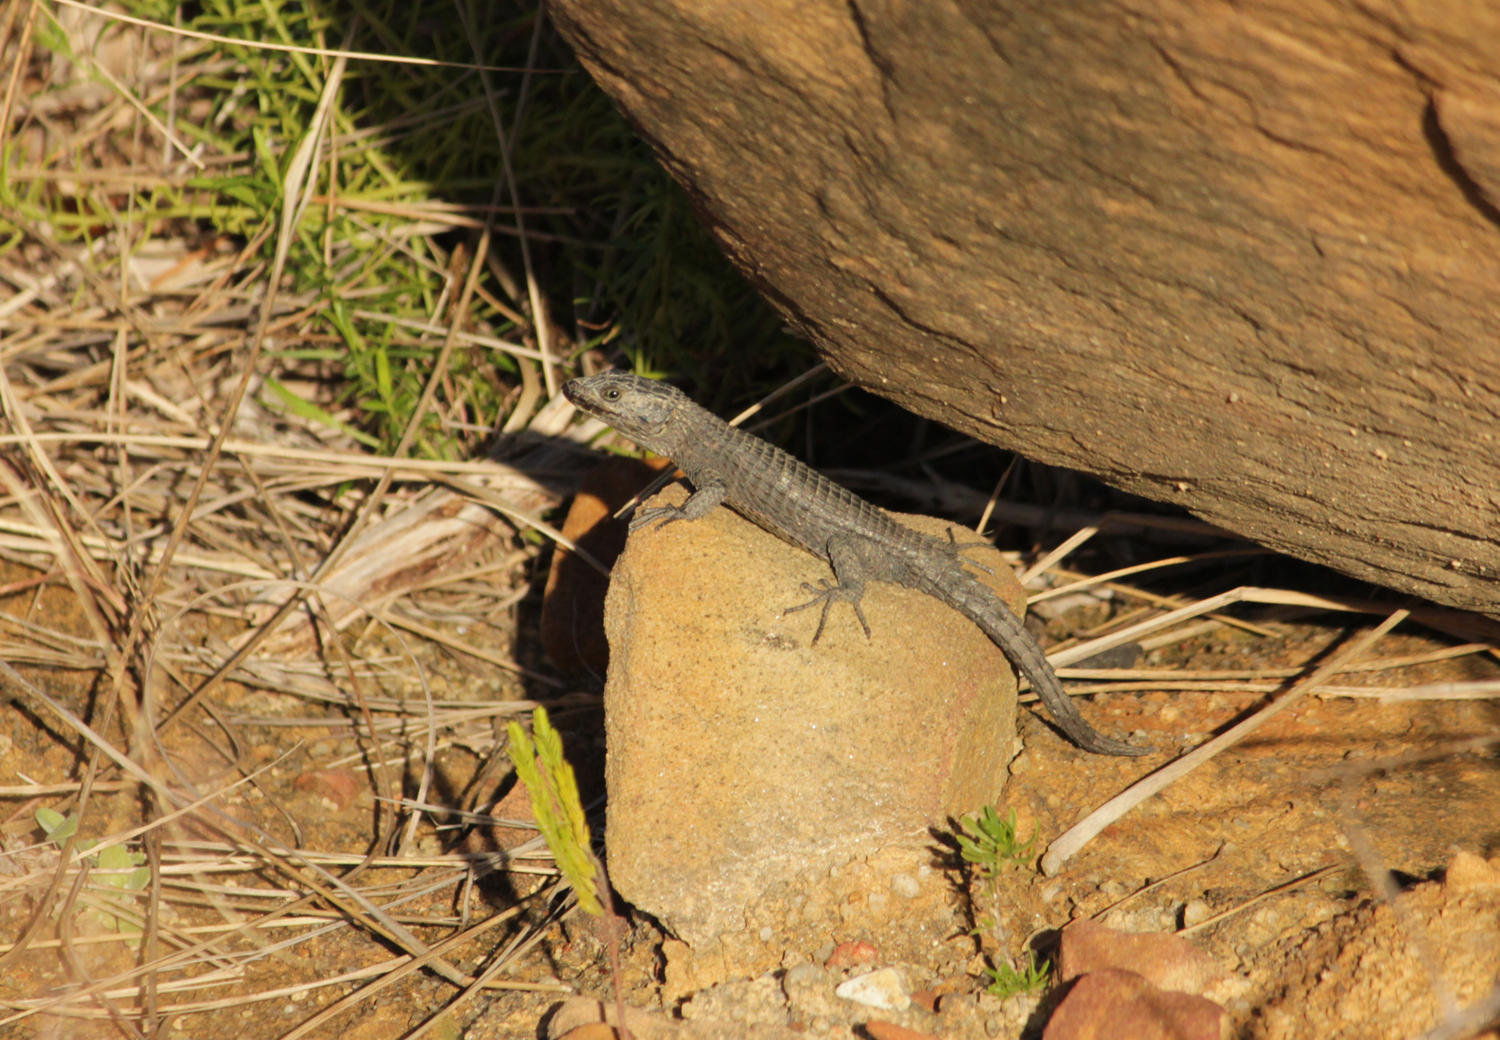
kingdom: Animalia
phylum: Chordata
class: Squamata
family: Cordylidae
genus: Cordylus
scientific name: Cordylus niger
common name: Black girdled lizard
